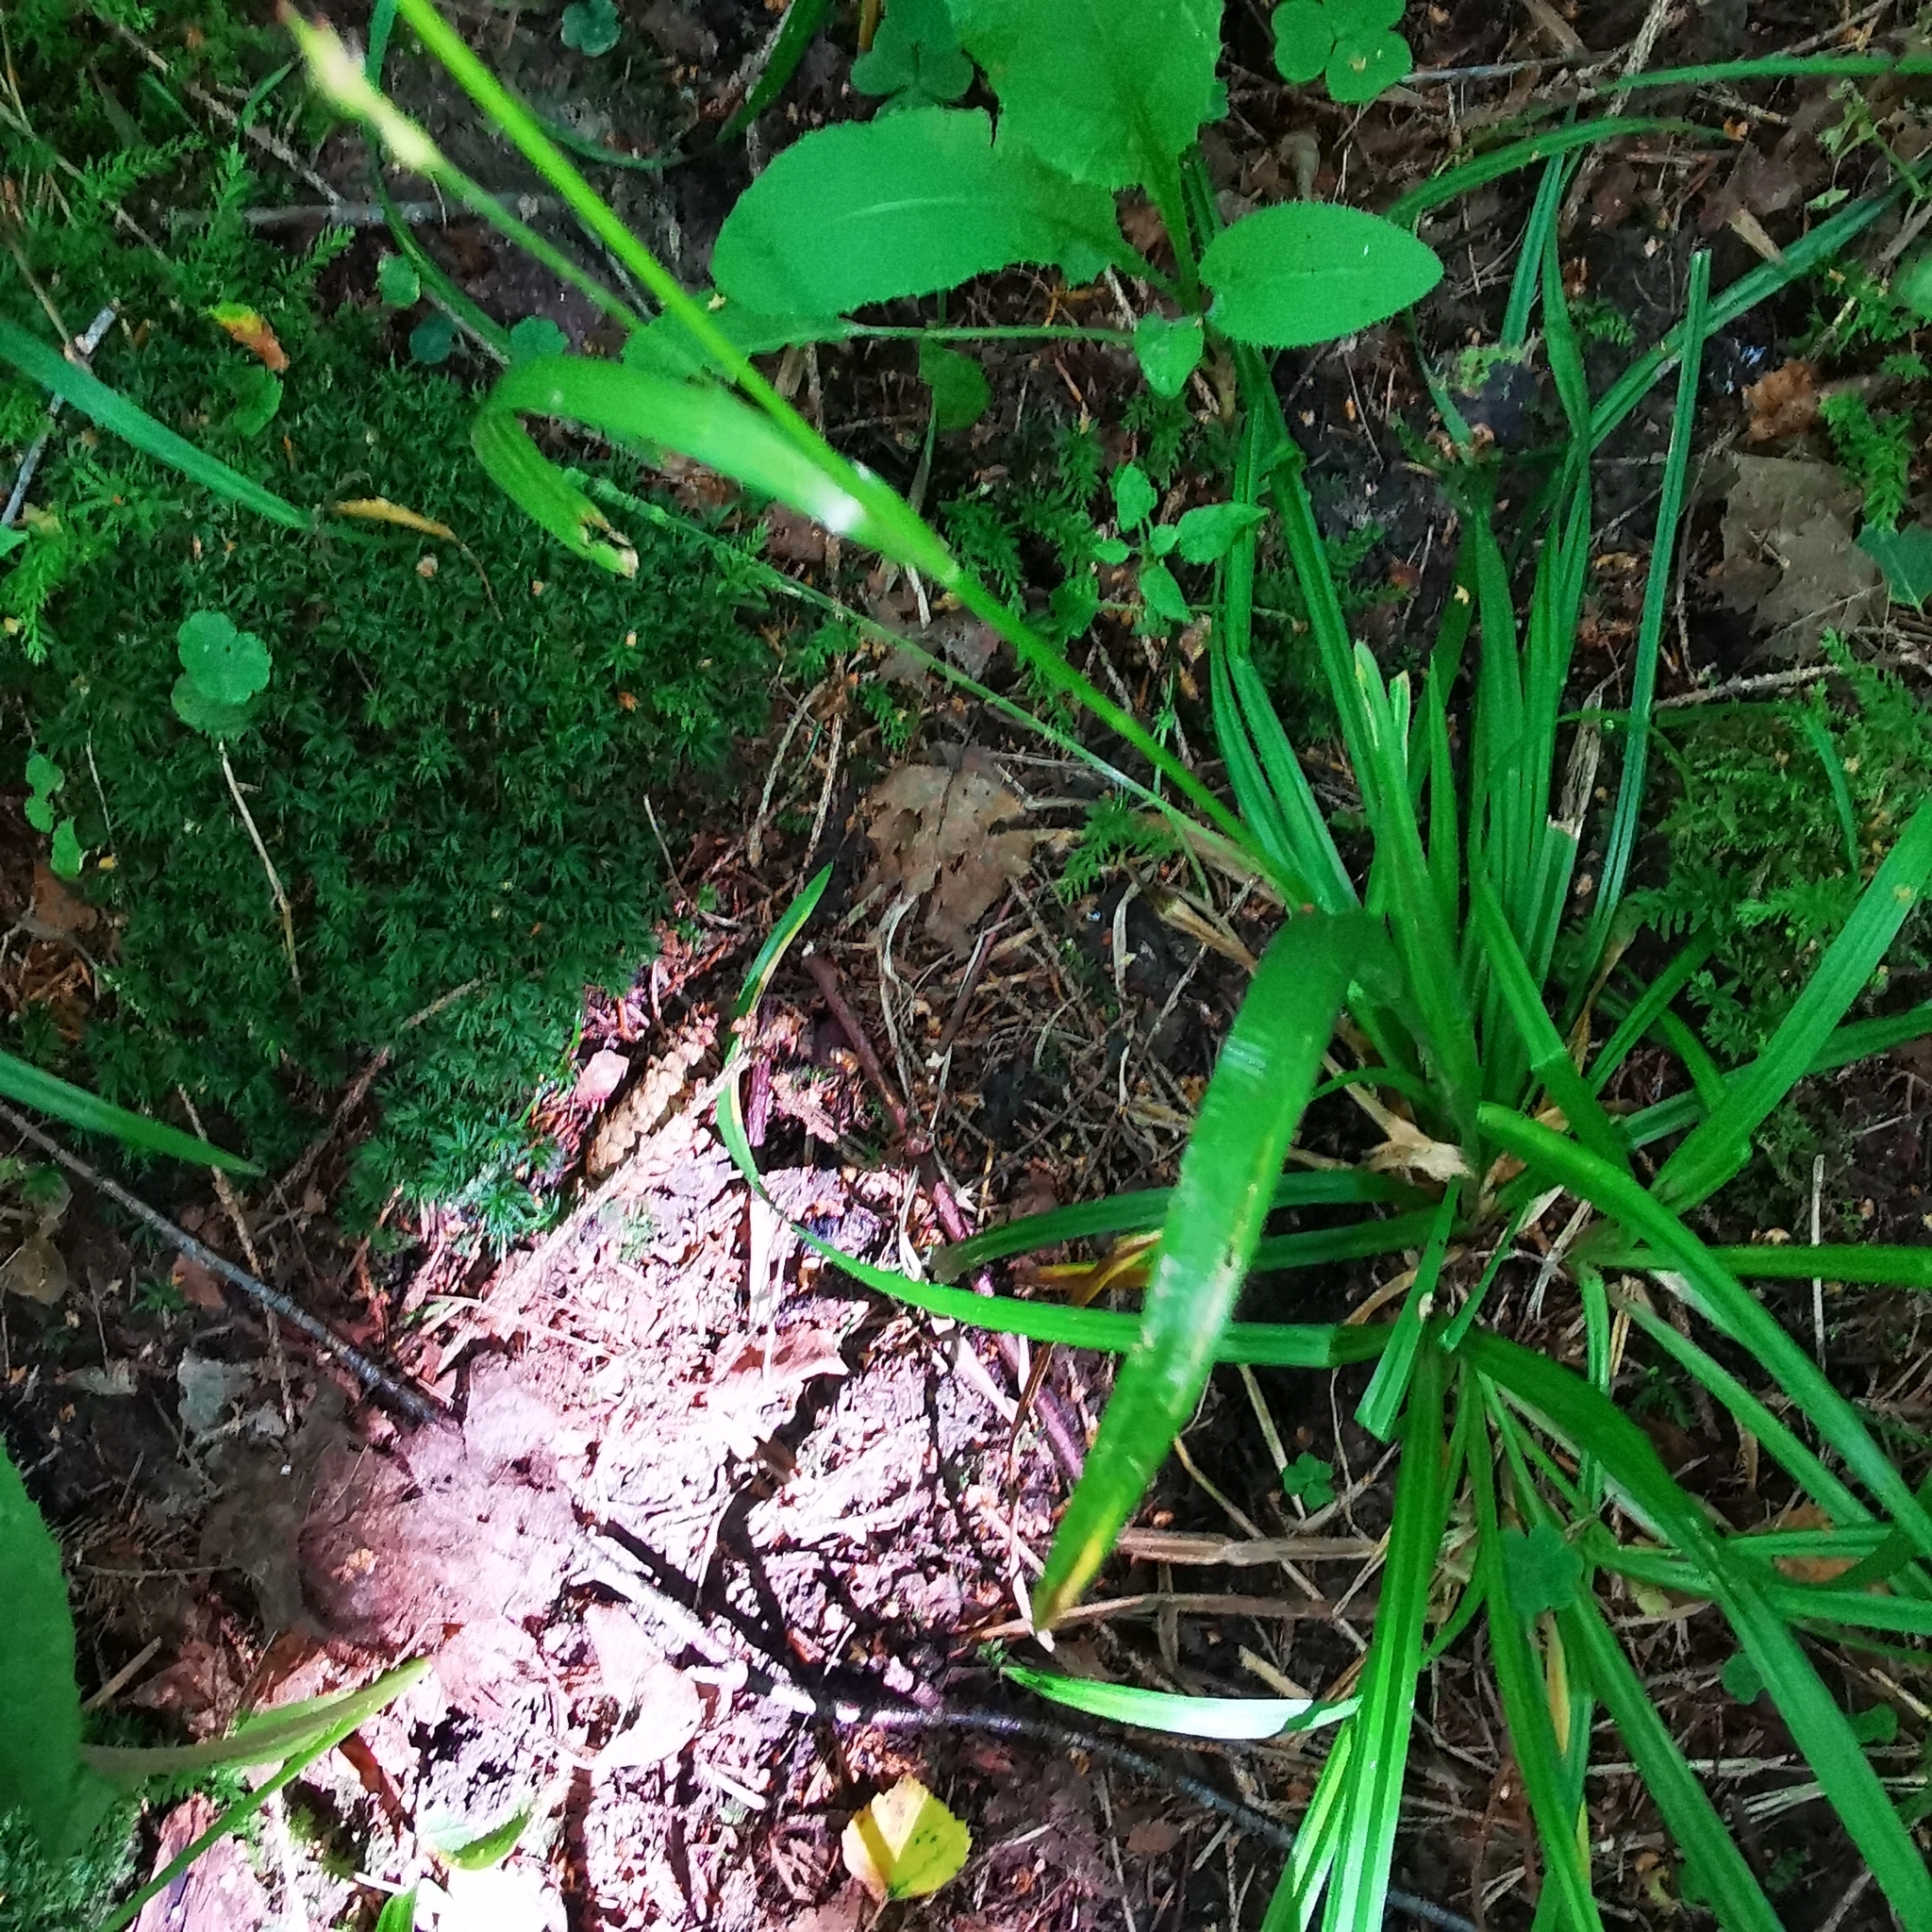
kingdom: Plantae
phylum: Tracheophyta
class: Liliopsida
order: Poales
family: Cyperaceae
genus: Carex
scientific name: Carex sylvatica
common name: Wood-sedge
